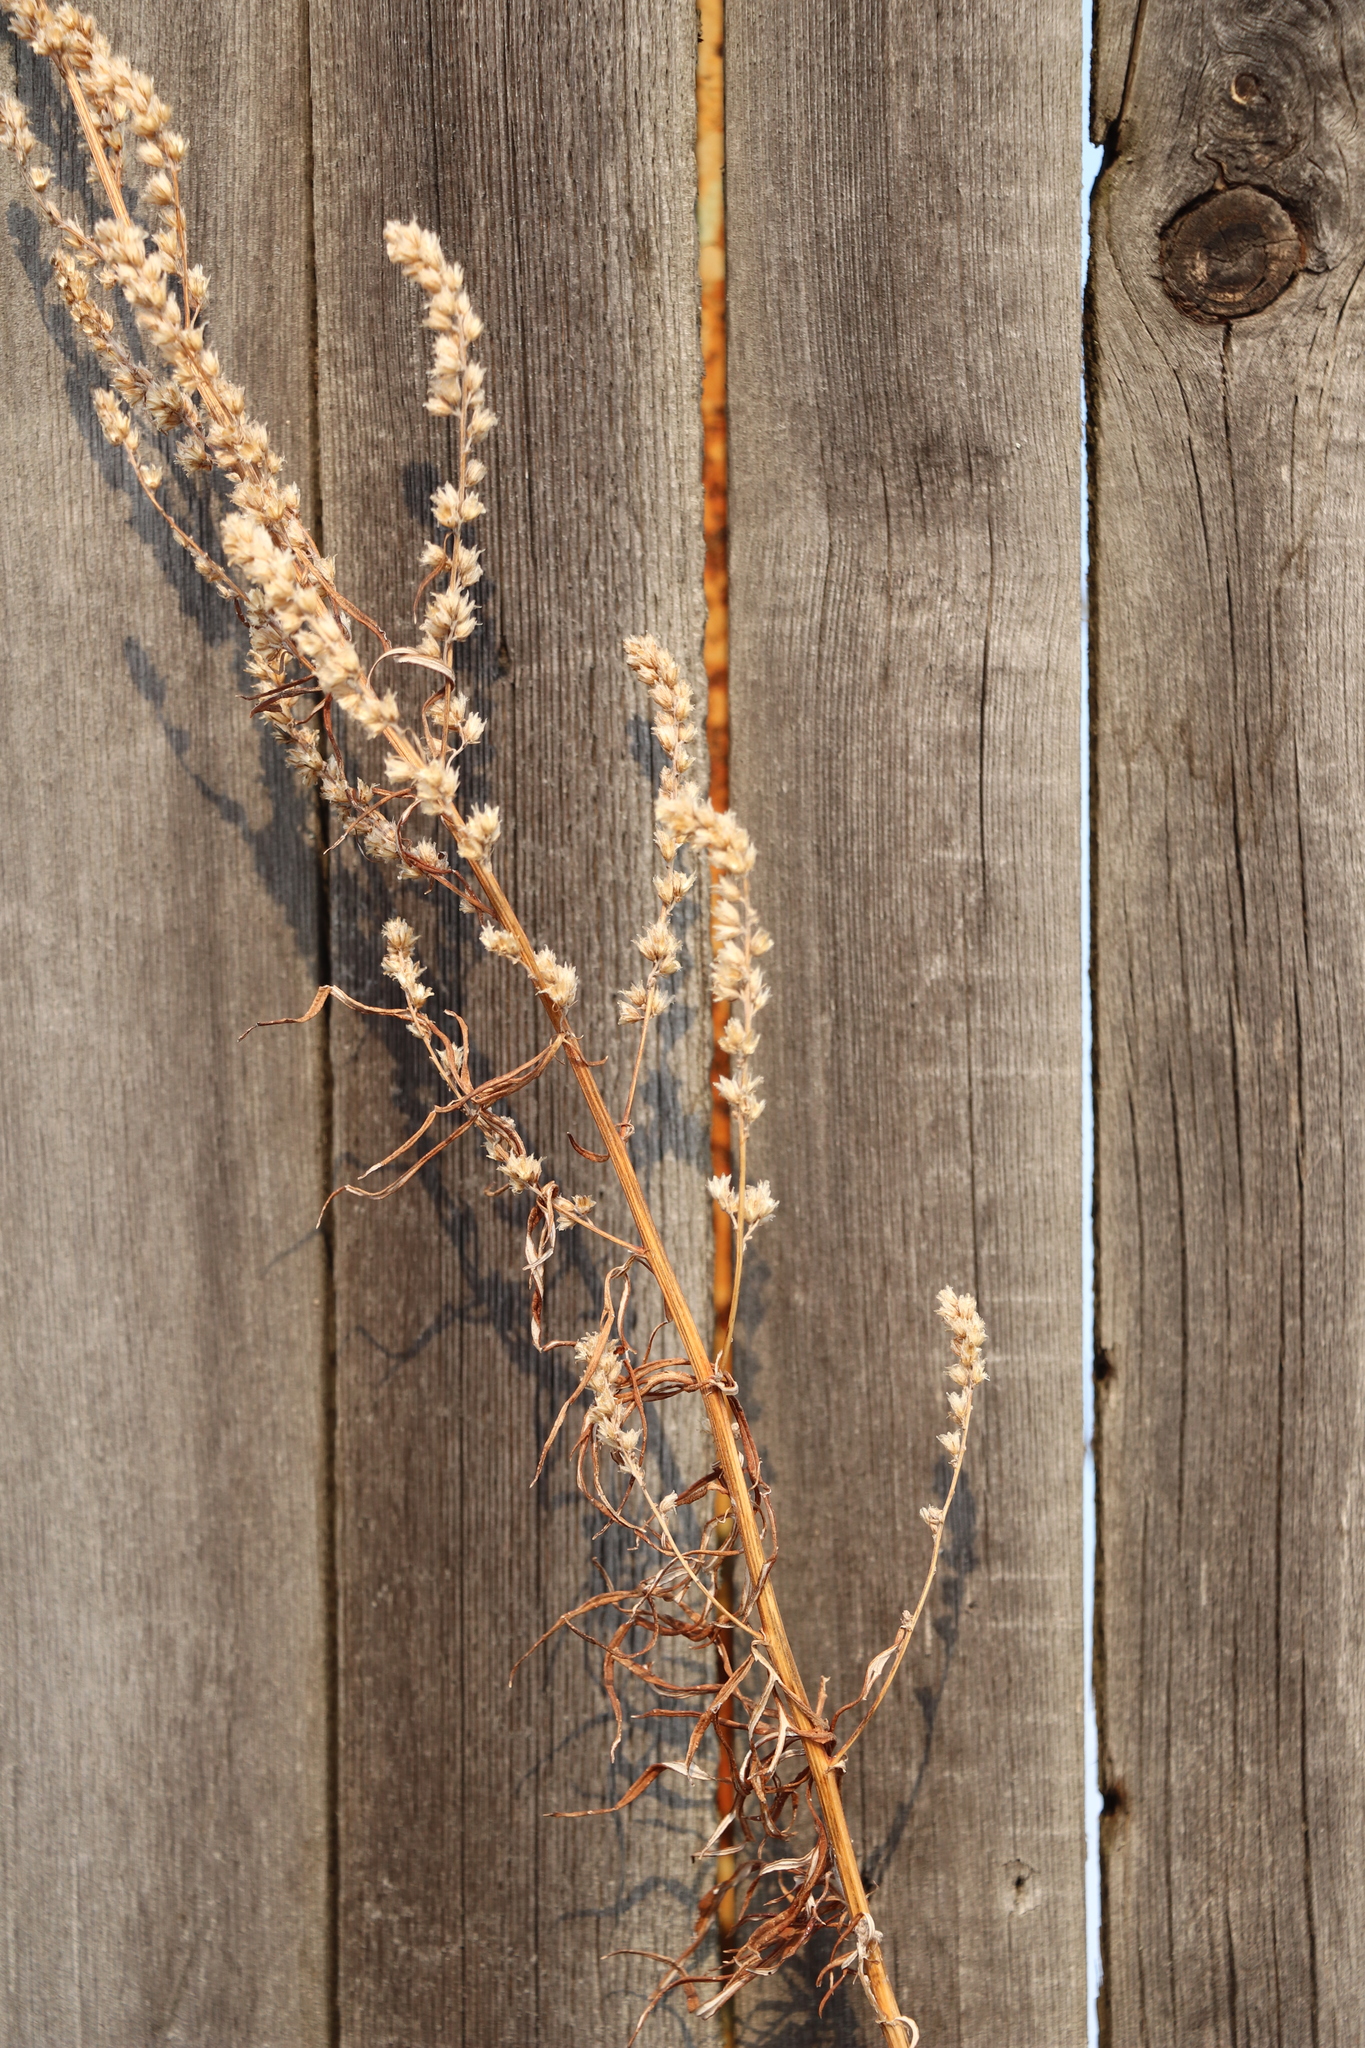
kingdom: Plantae
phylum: Tracheophyta
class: Magnoliopsida
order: Asterales
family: Asteraceae
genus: Artemisia
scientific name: Artemisia vulgaris
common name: Mugwort
